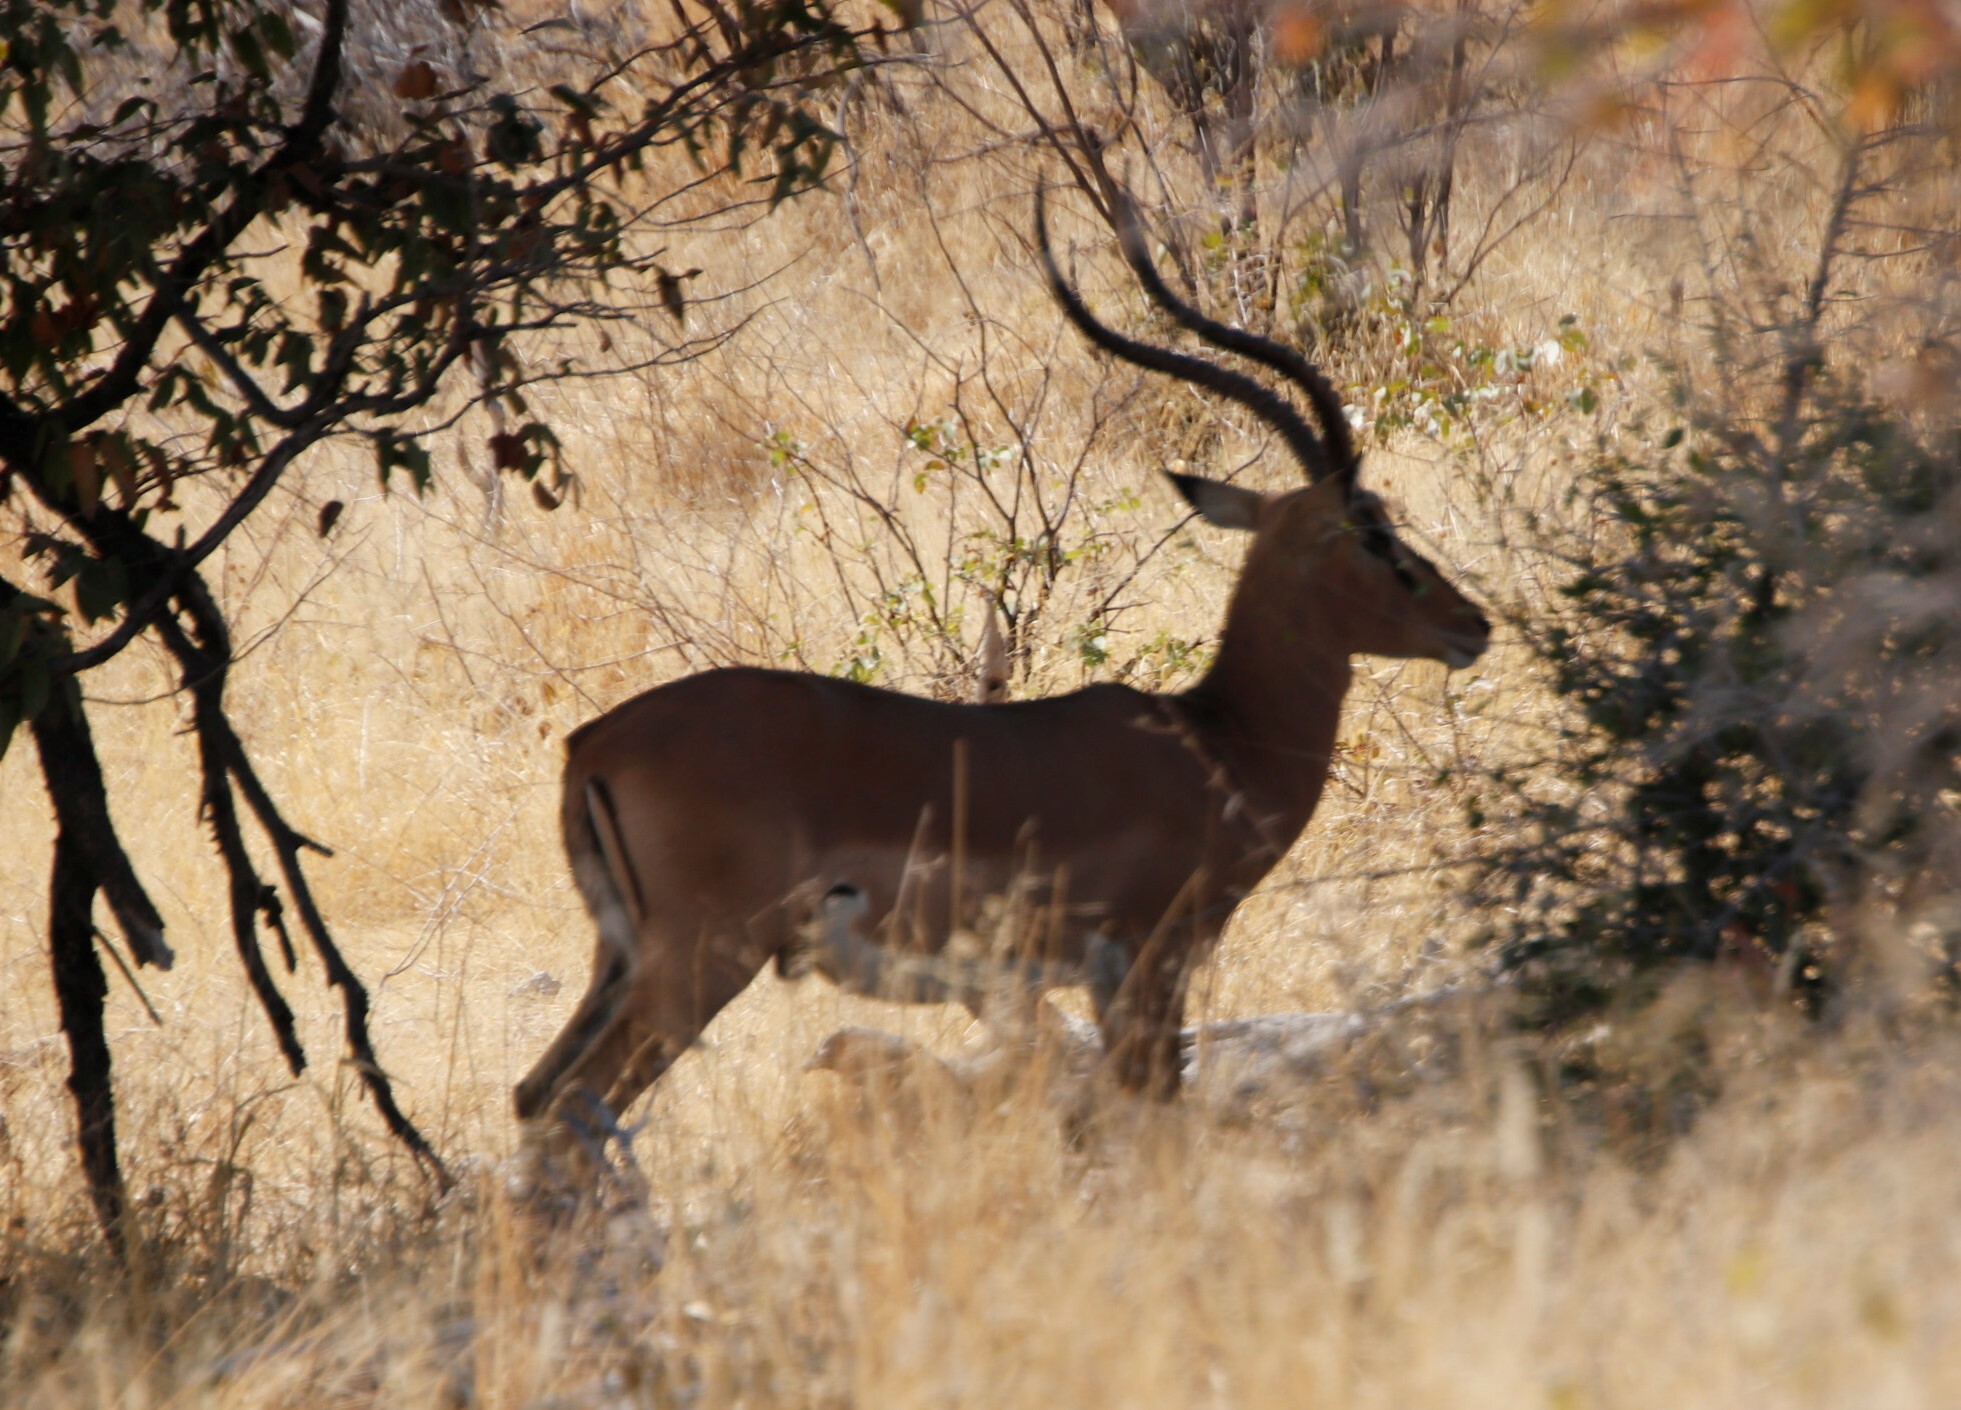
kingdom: Animalia
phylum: Chordata
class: Mammalia
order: Artiodactyla
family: Bovidae
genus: Aepyceros
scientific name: Aepyceros melampus
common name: Impala
